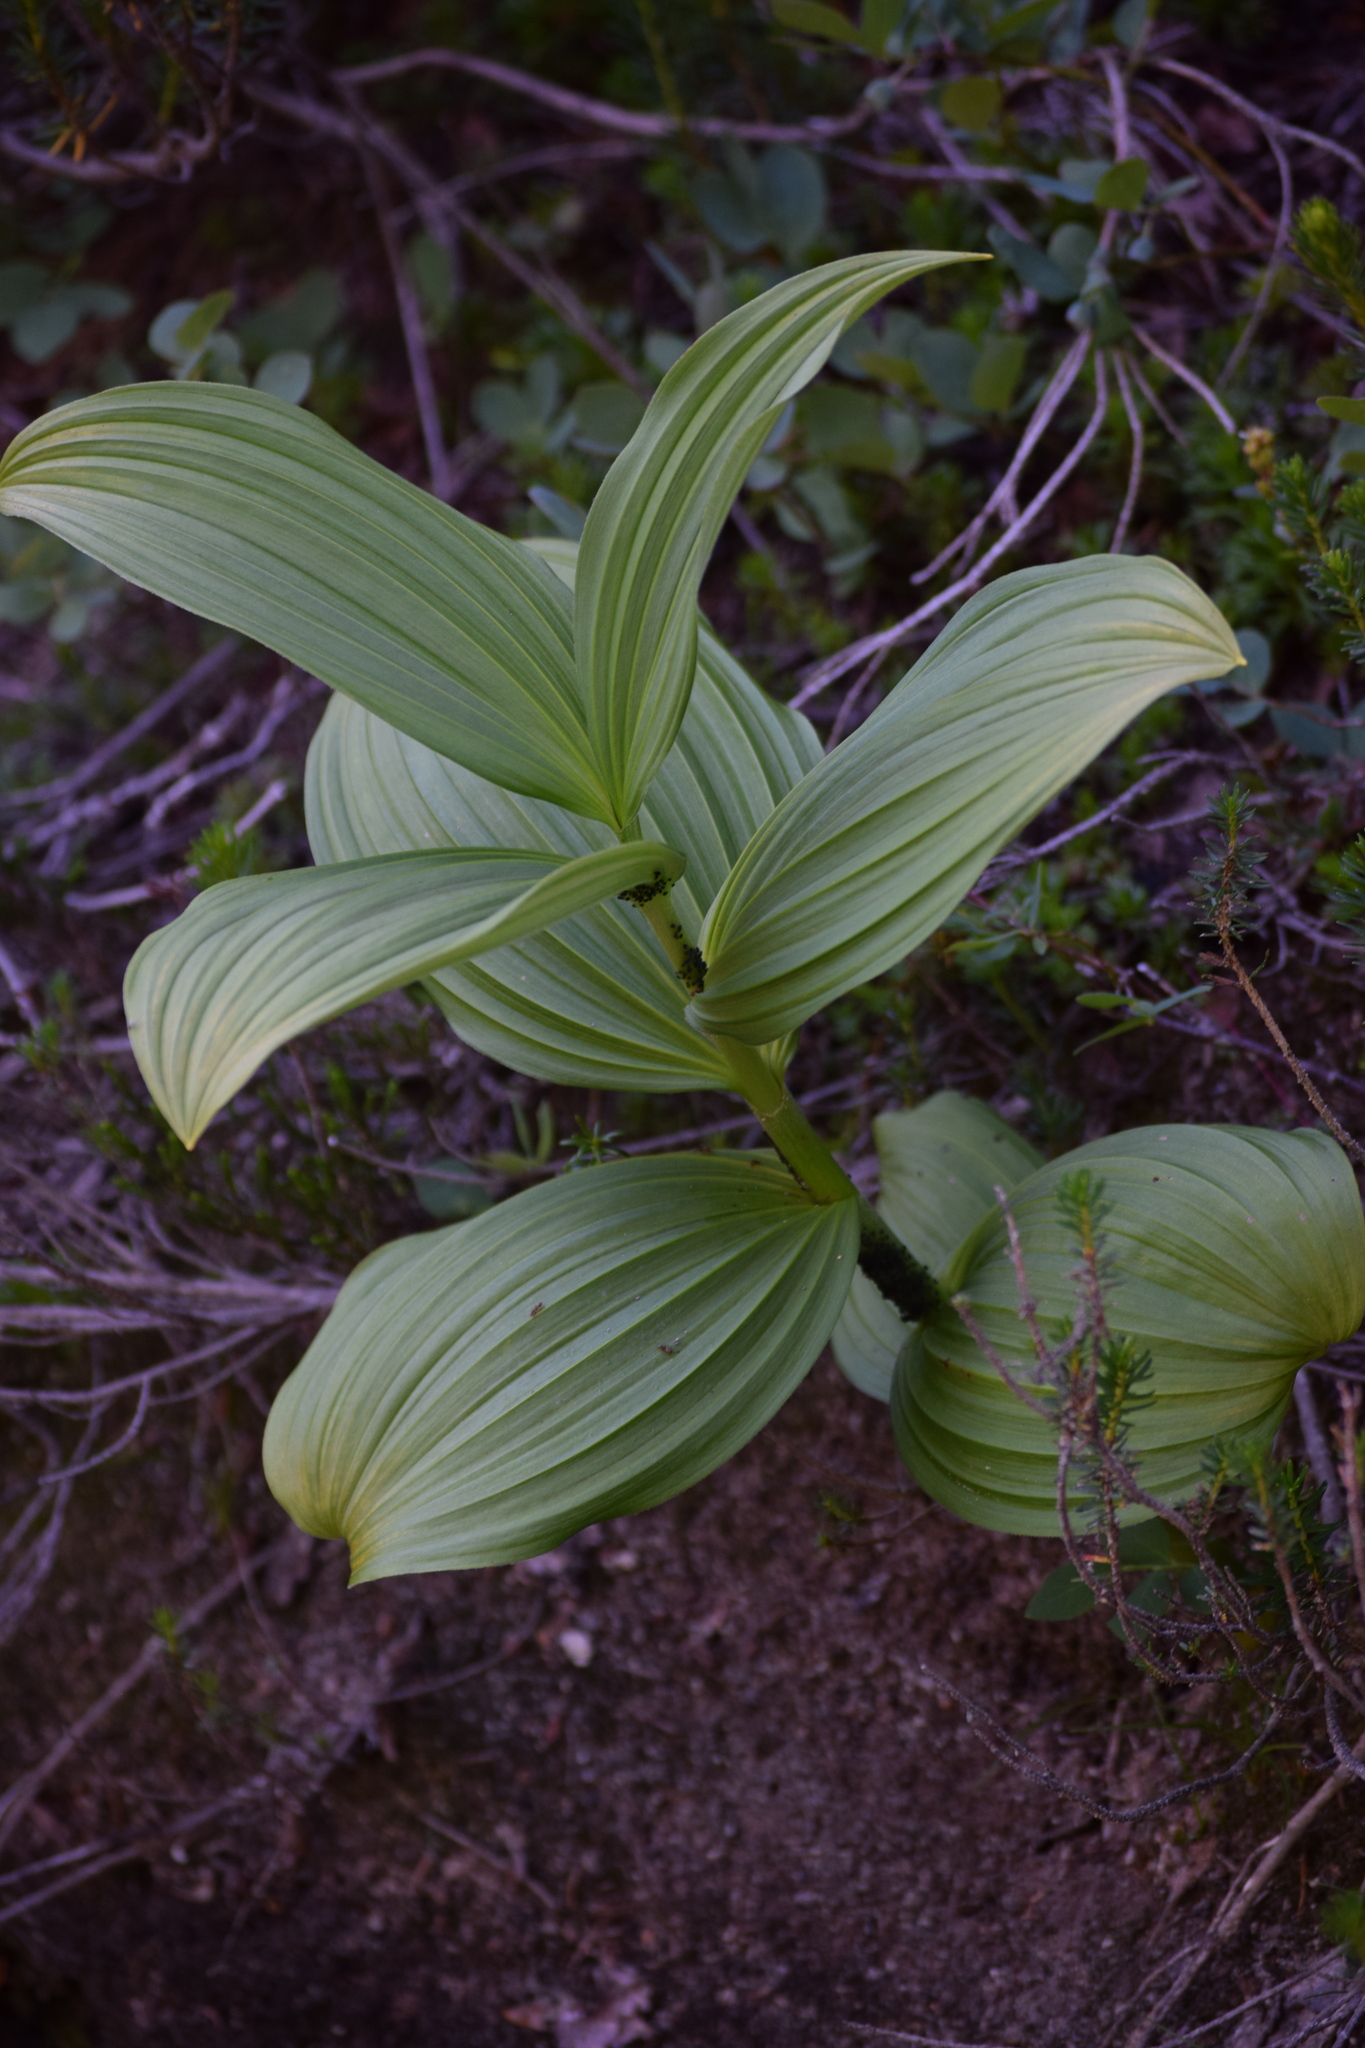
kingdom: Plantae
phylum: Tracheophyta
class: Liliopsida
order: Liliales
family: Melanthiaceae
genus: Veratrum
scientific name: Veratrum viride
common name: American false hellebore
